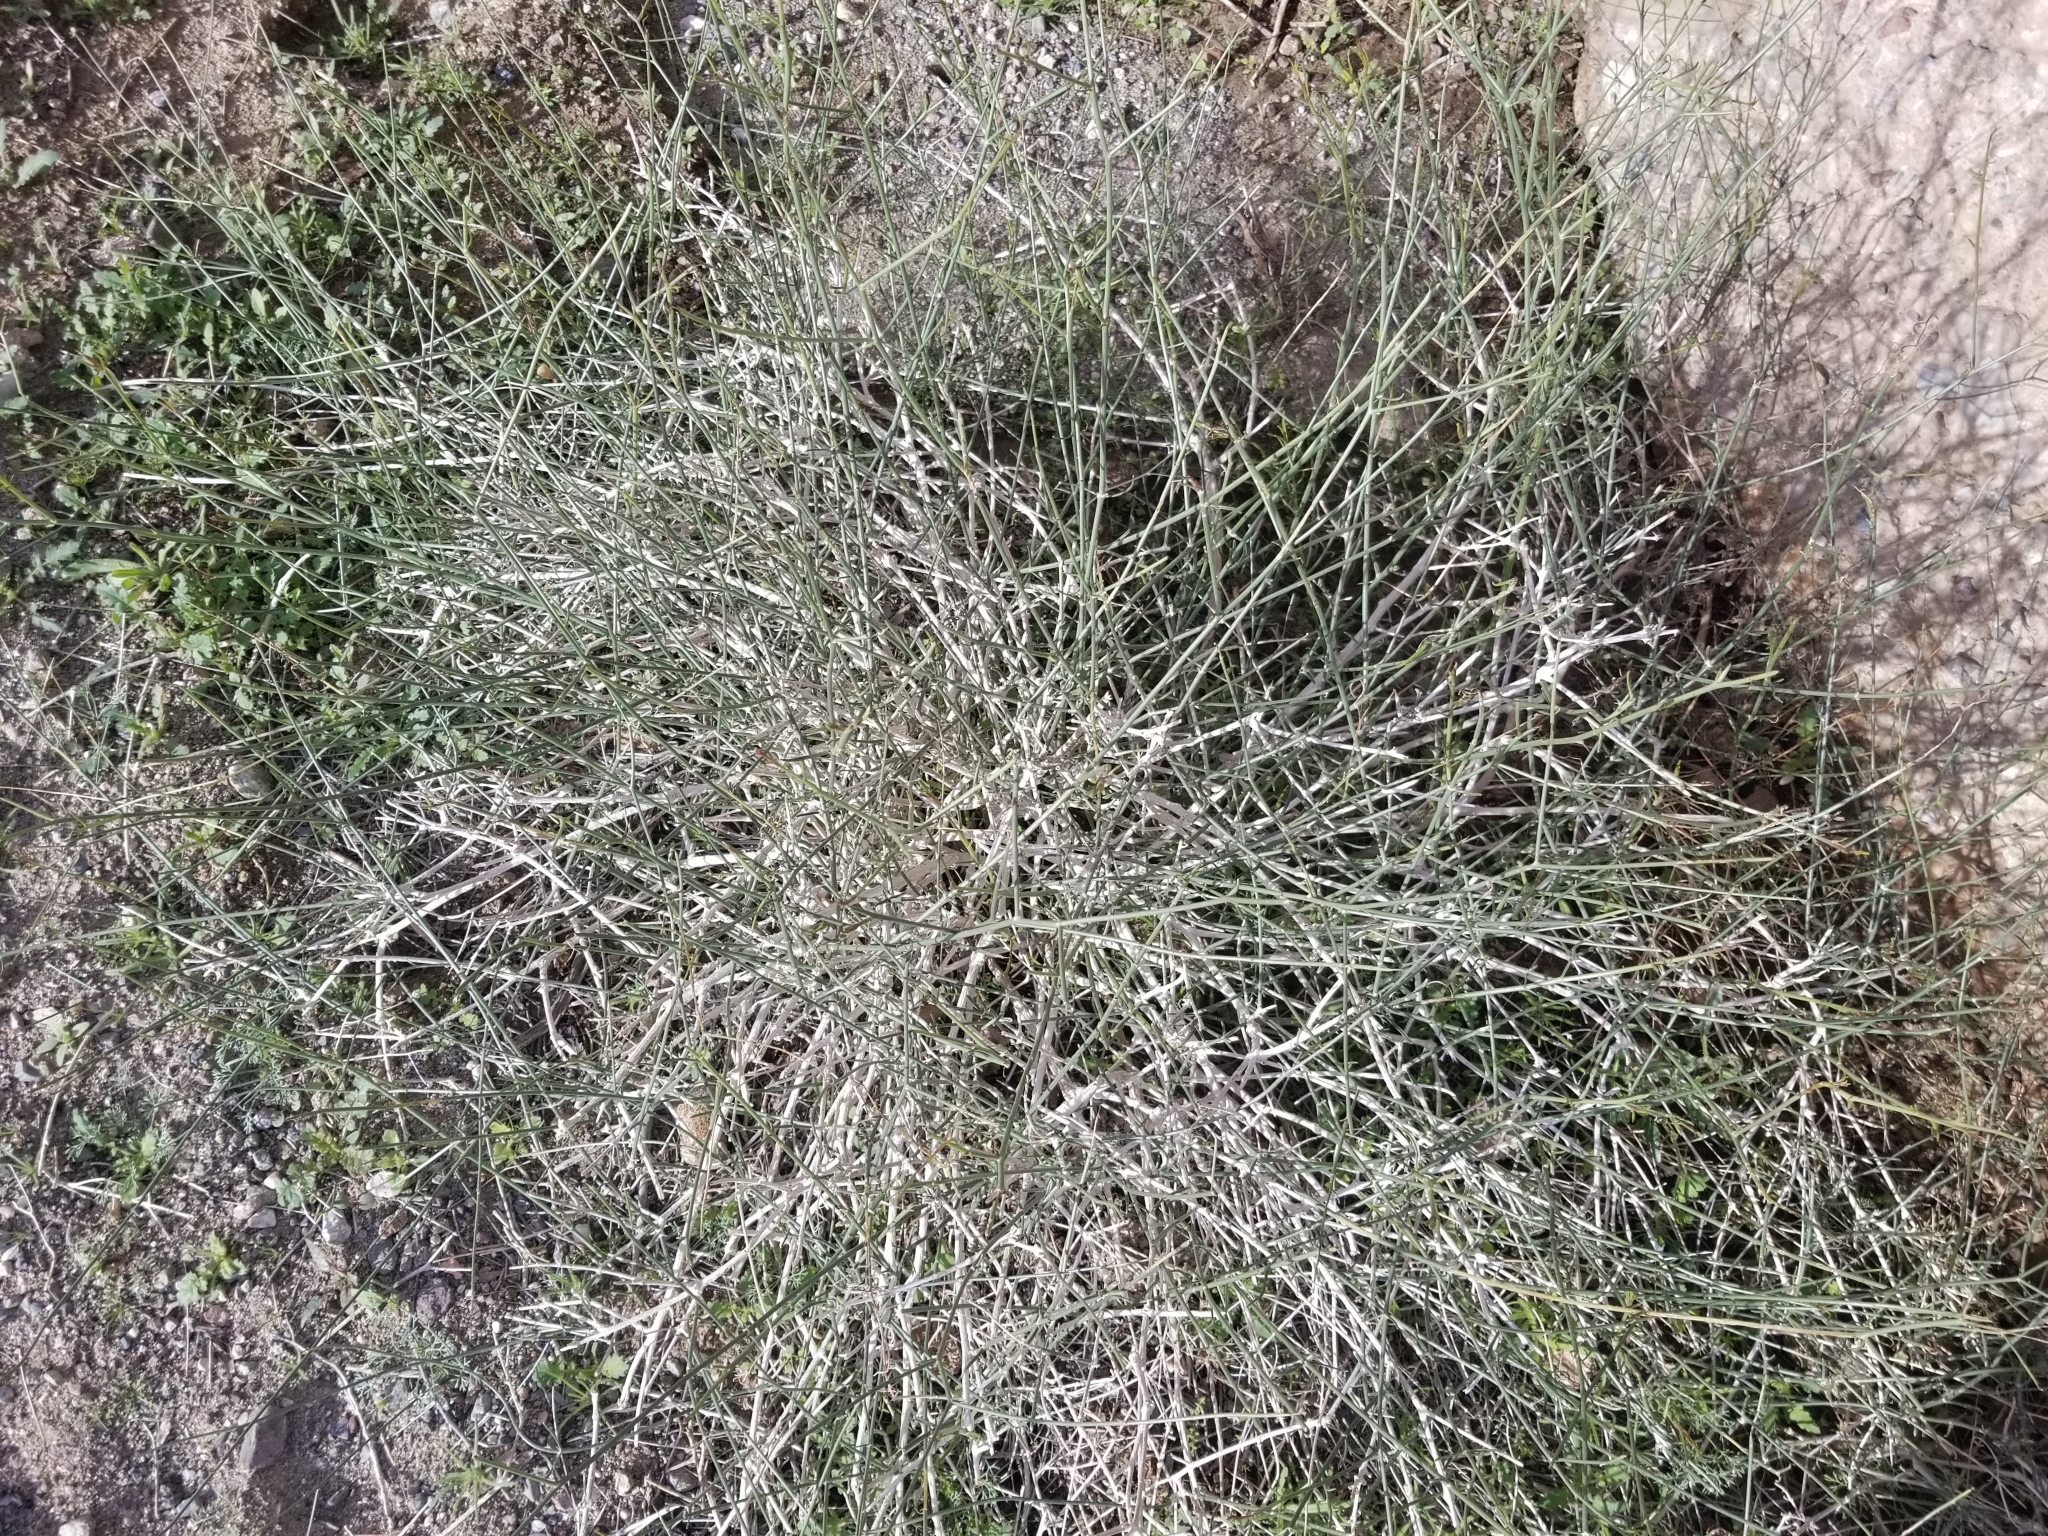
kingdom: Plantae
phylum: Tracheophyta
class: Magnoliopsida
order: Asterales
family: Asteraceae
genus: Bebbia
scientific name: Bebbia juncea
